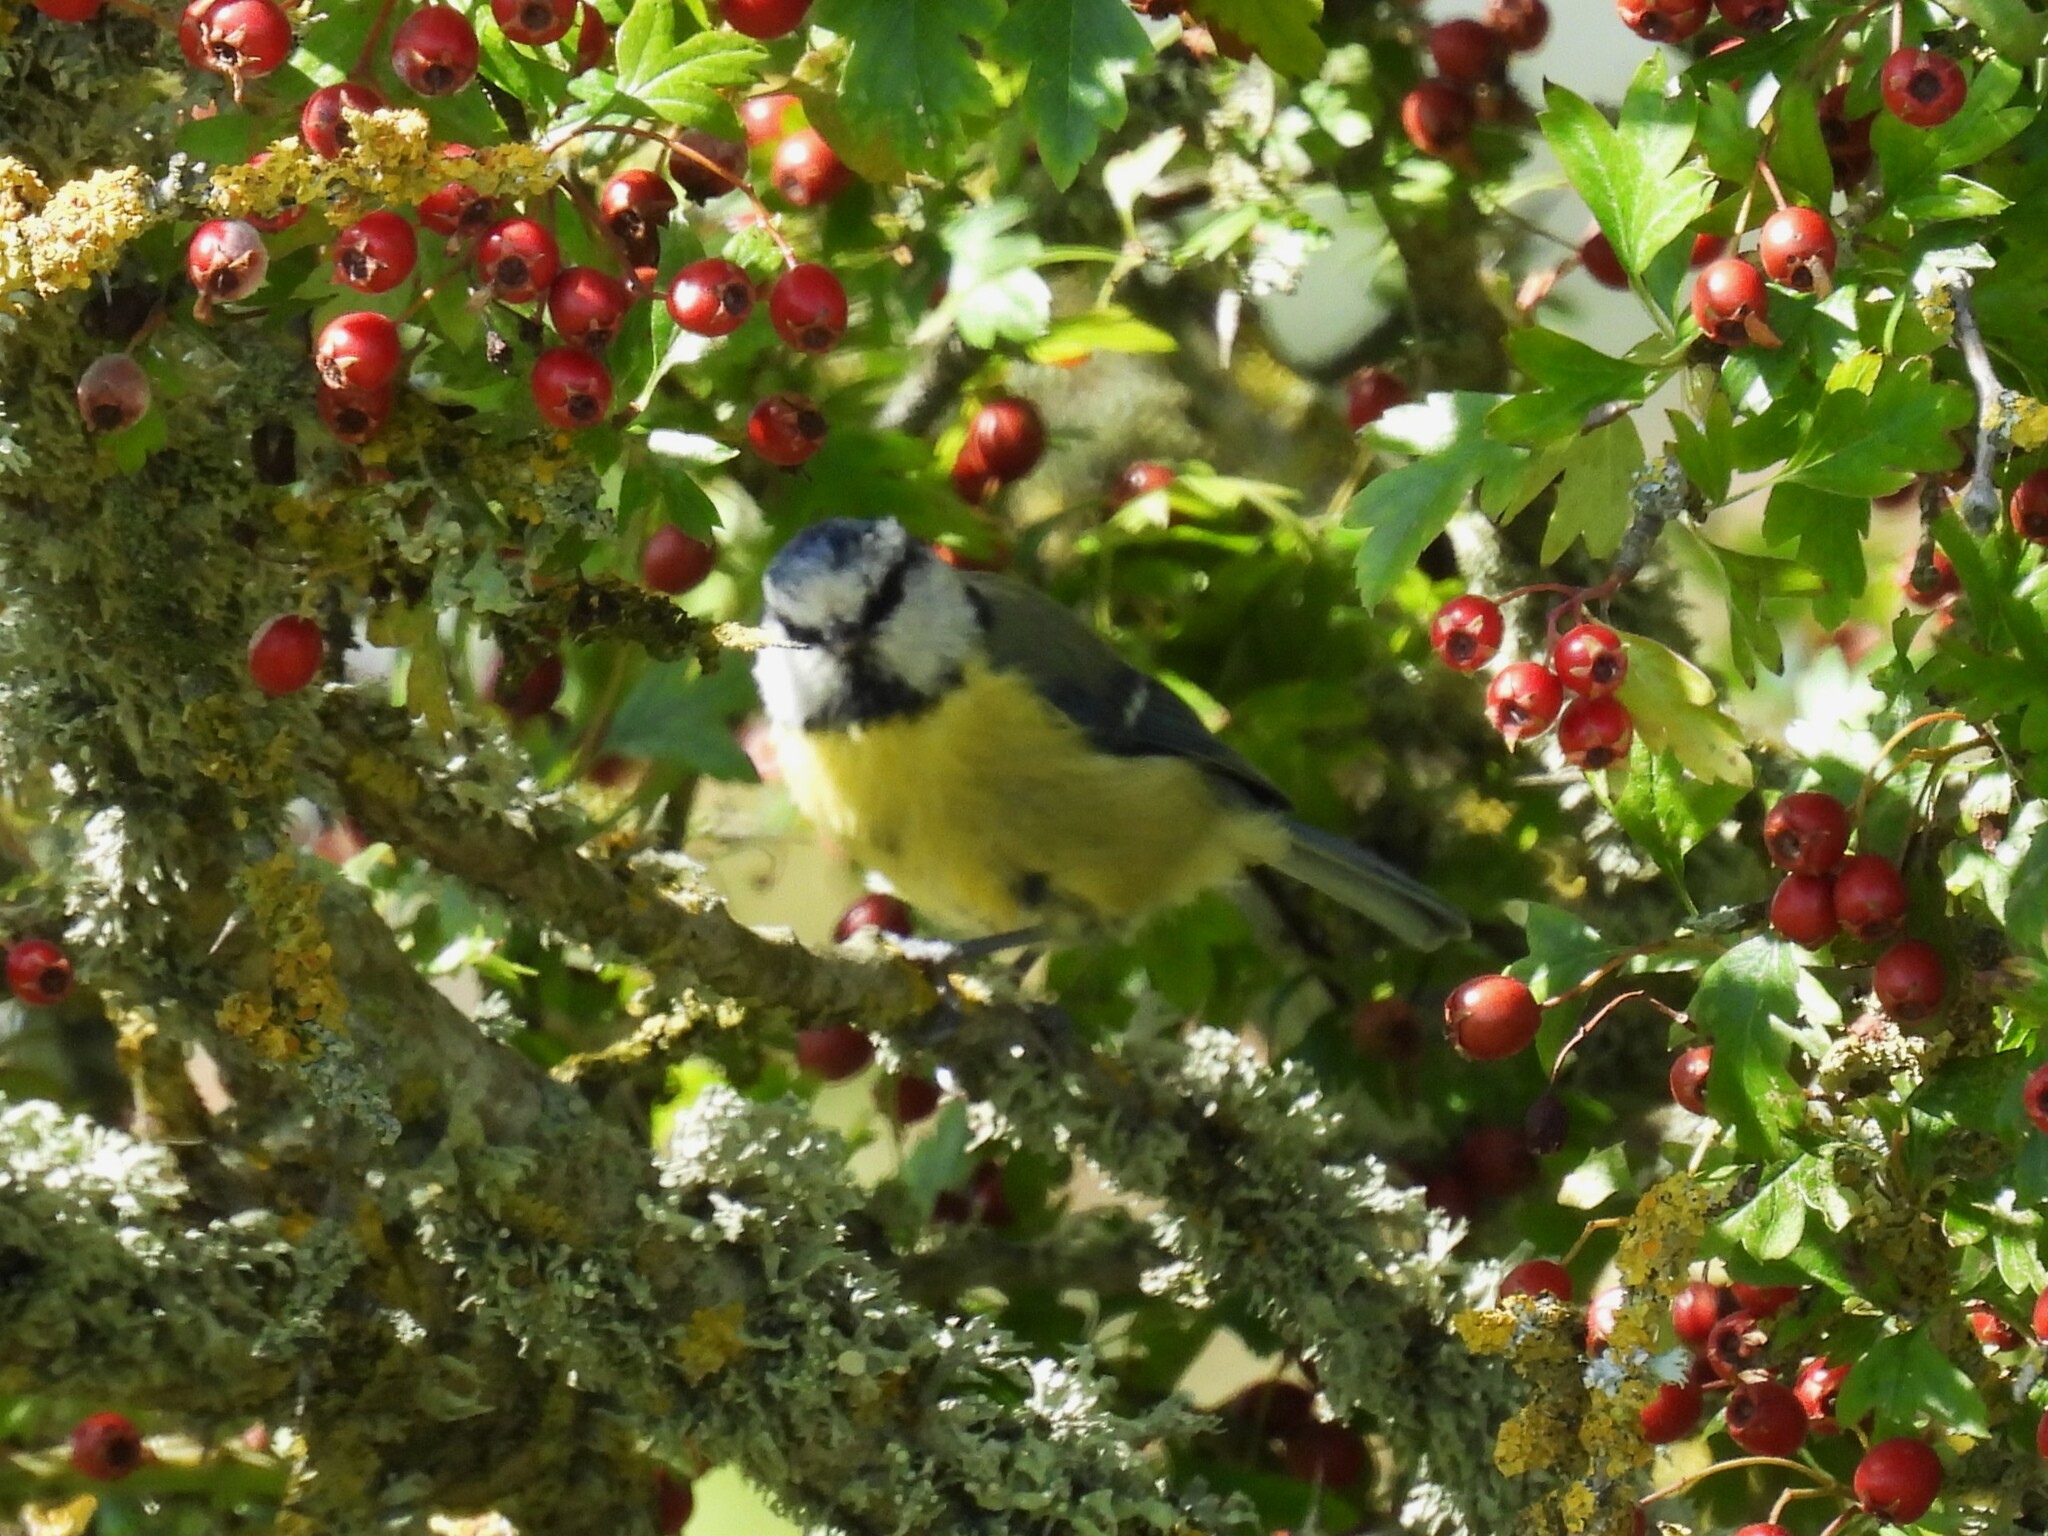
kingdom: Animalia
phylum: Chordata
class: Aves
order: Passeriformes
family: Paridae
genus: Cyanistes
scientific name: Cyanistes caeruleus
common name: Eurasian blue tit
